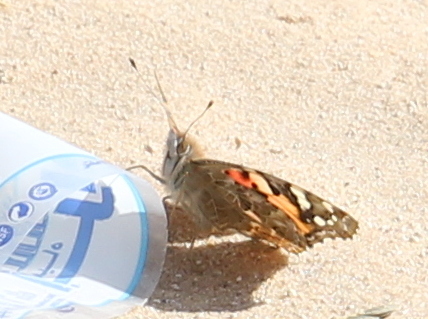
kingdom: Animalia
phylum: Arthropoda
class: Insecta
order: Lepidoptera
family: Nymphalidae
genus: Vanessa
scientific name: Vanessa cardui
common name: Painted lady
